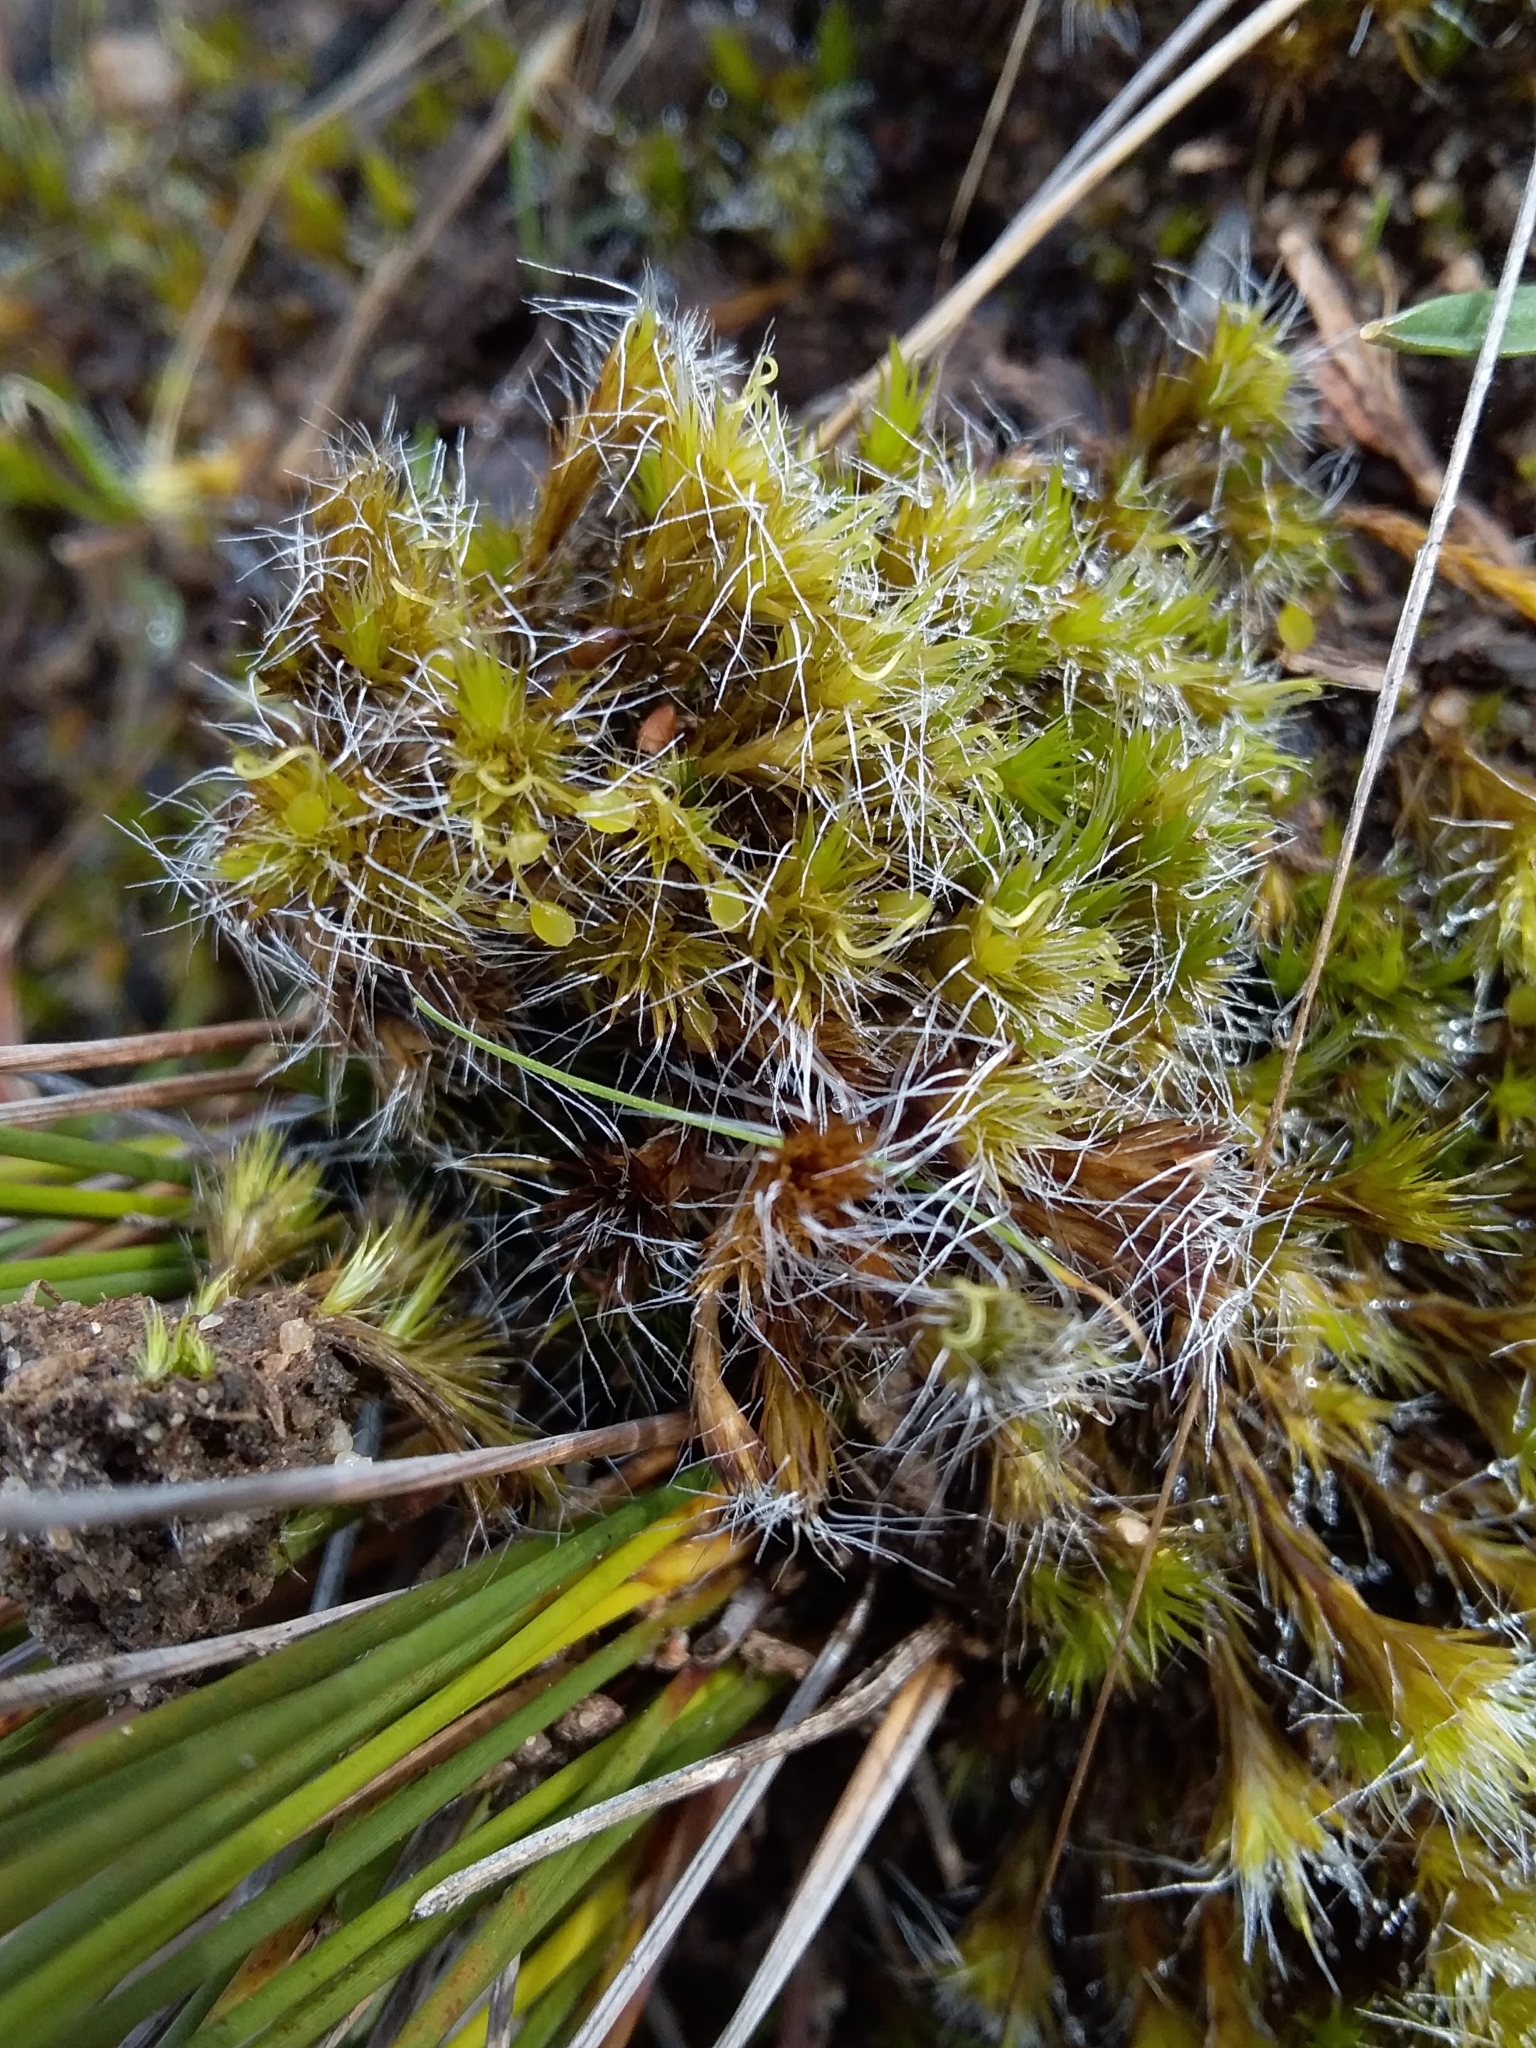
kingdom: Plantae
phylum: Bryophyta
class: Bryopsida
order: Dicranales
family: Leucobryaceae
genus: Campylopus
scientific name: Campylopus introflexus
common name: Heath star moss
